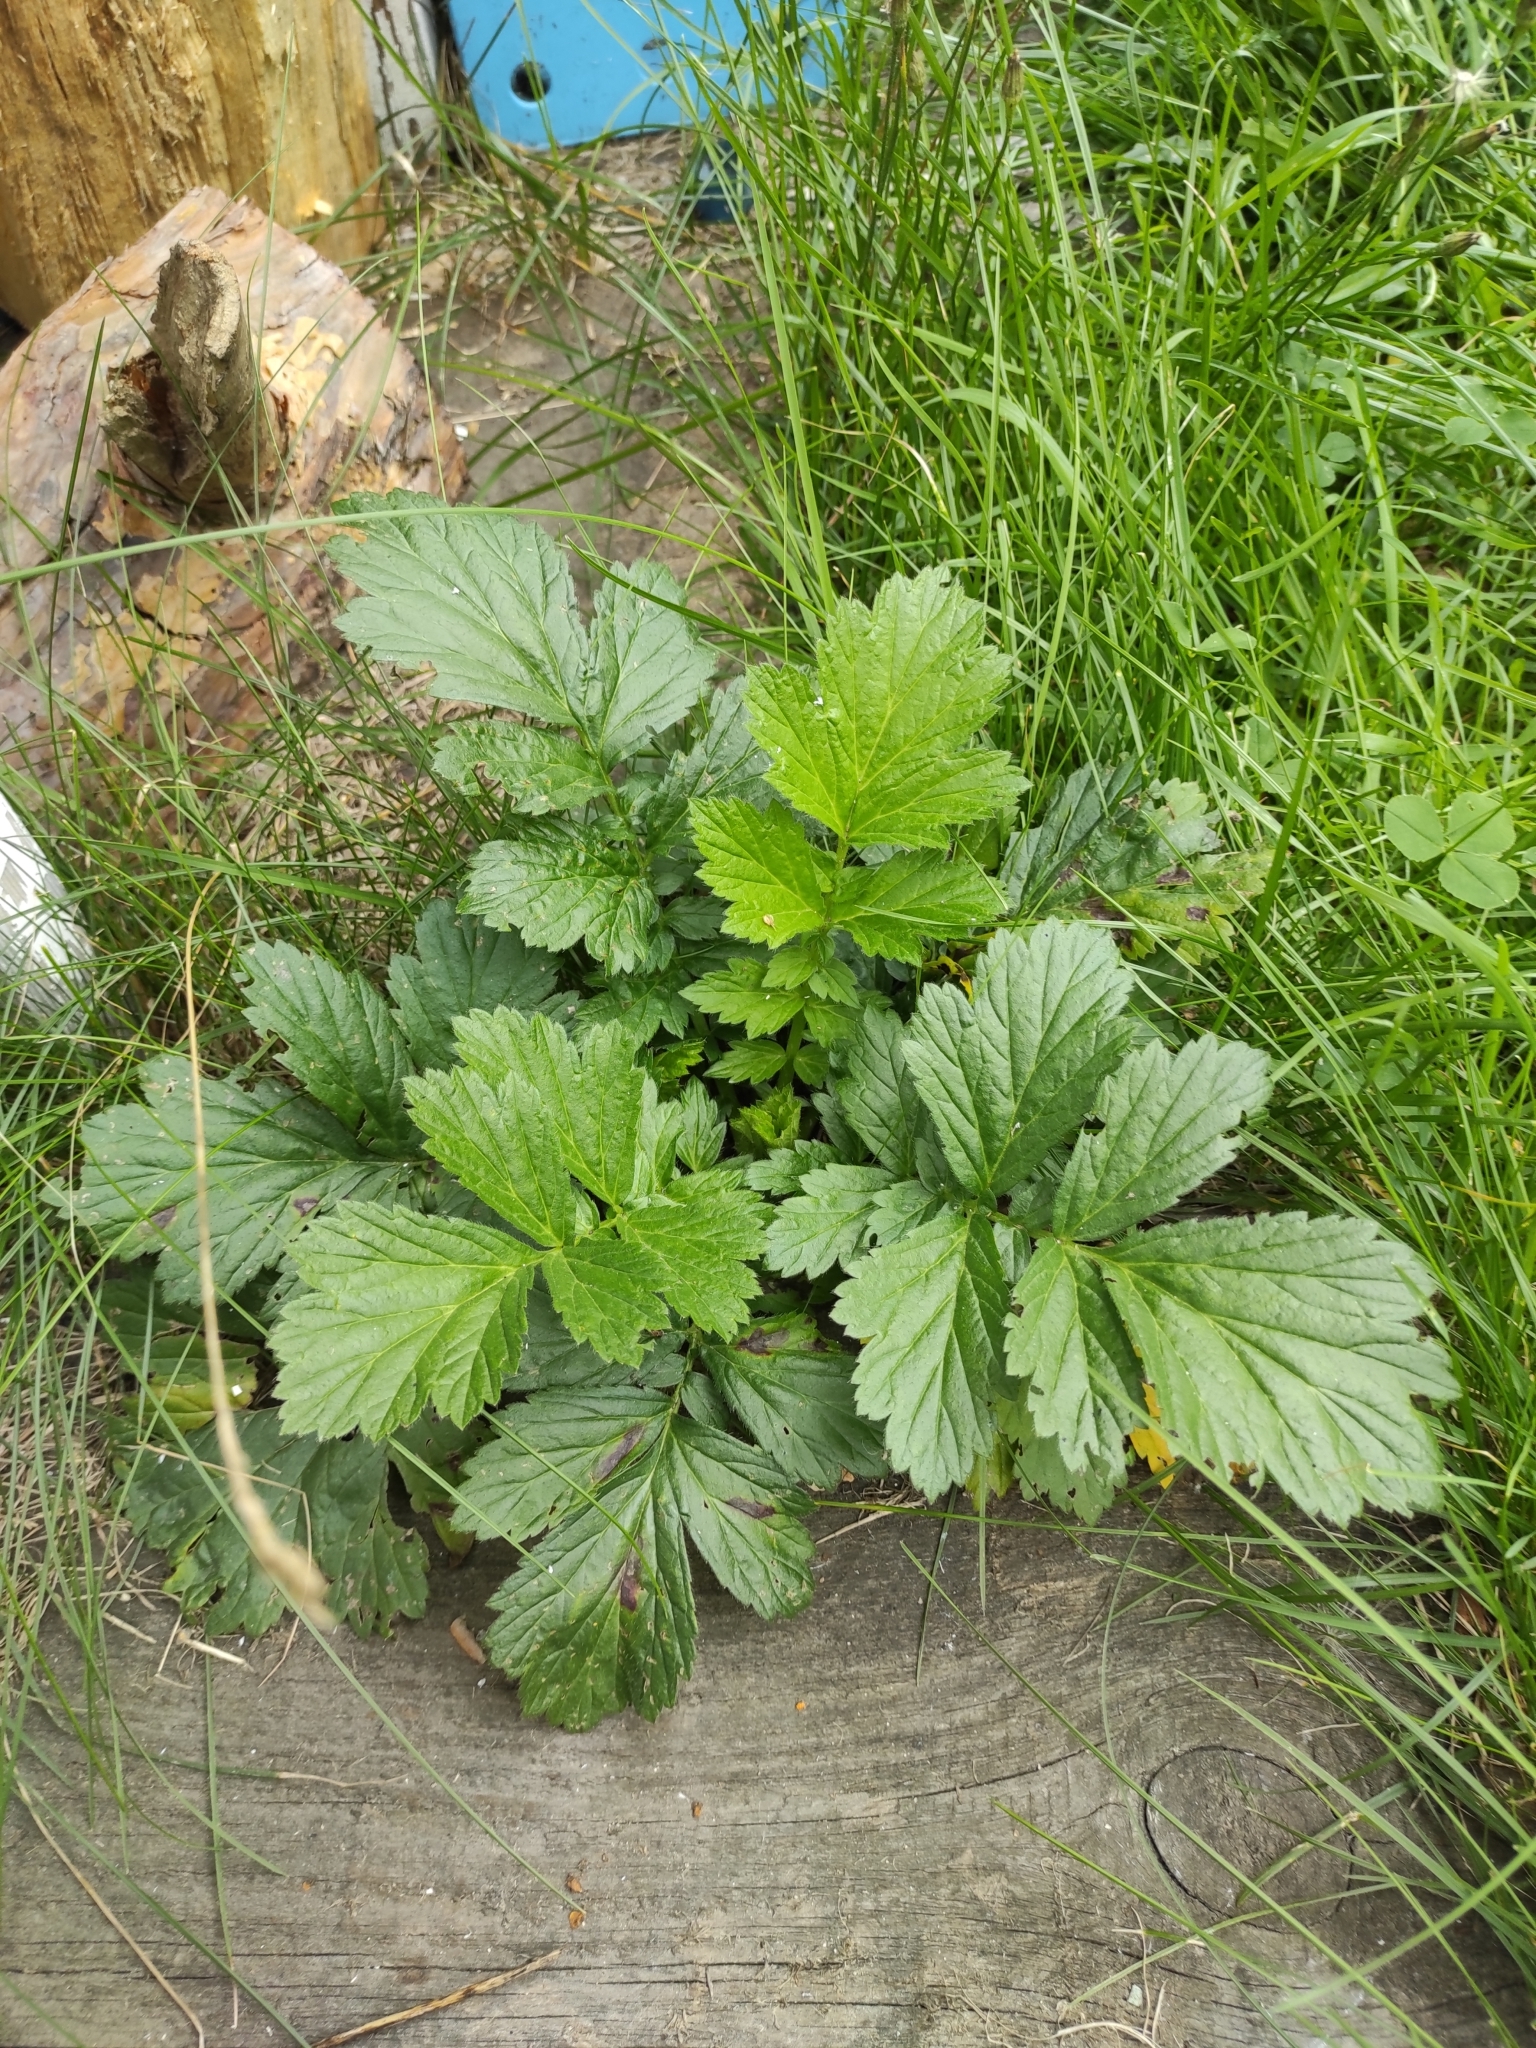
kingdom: Plantae
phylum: Tracheophyta
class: Magnoliopsida
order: Rosales
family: Rosaceae
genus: Geum
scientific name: Geum aleppicum
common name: Yellow avens
